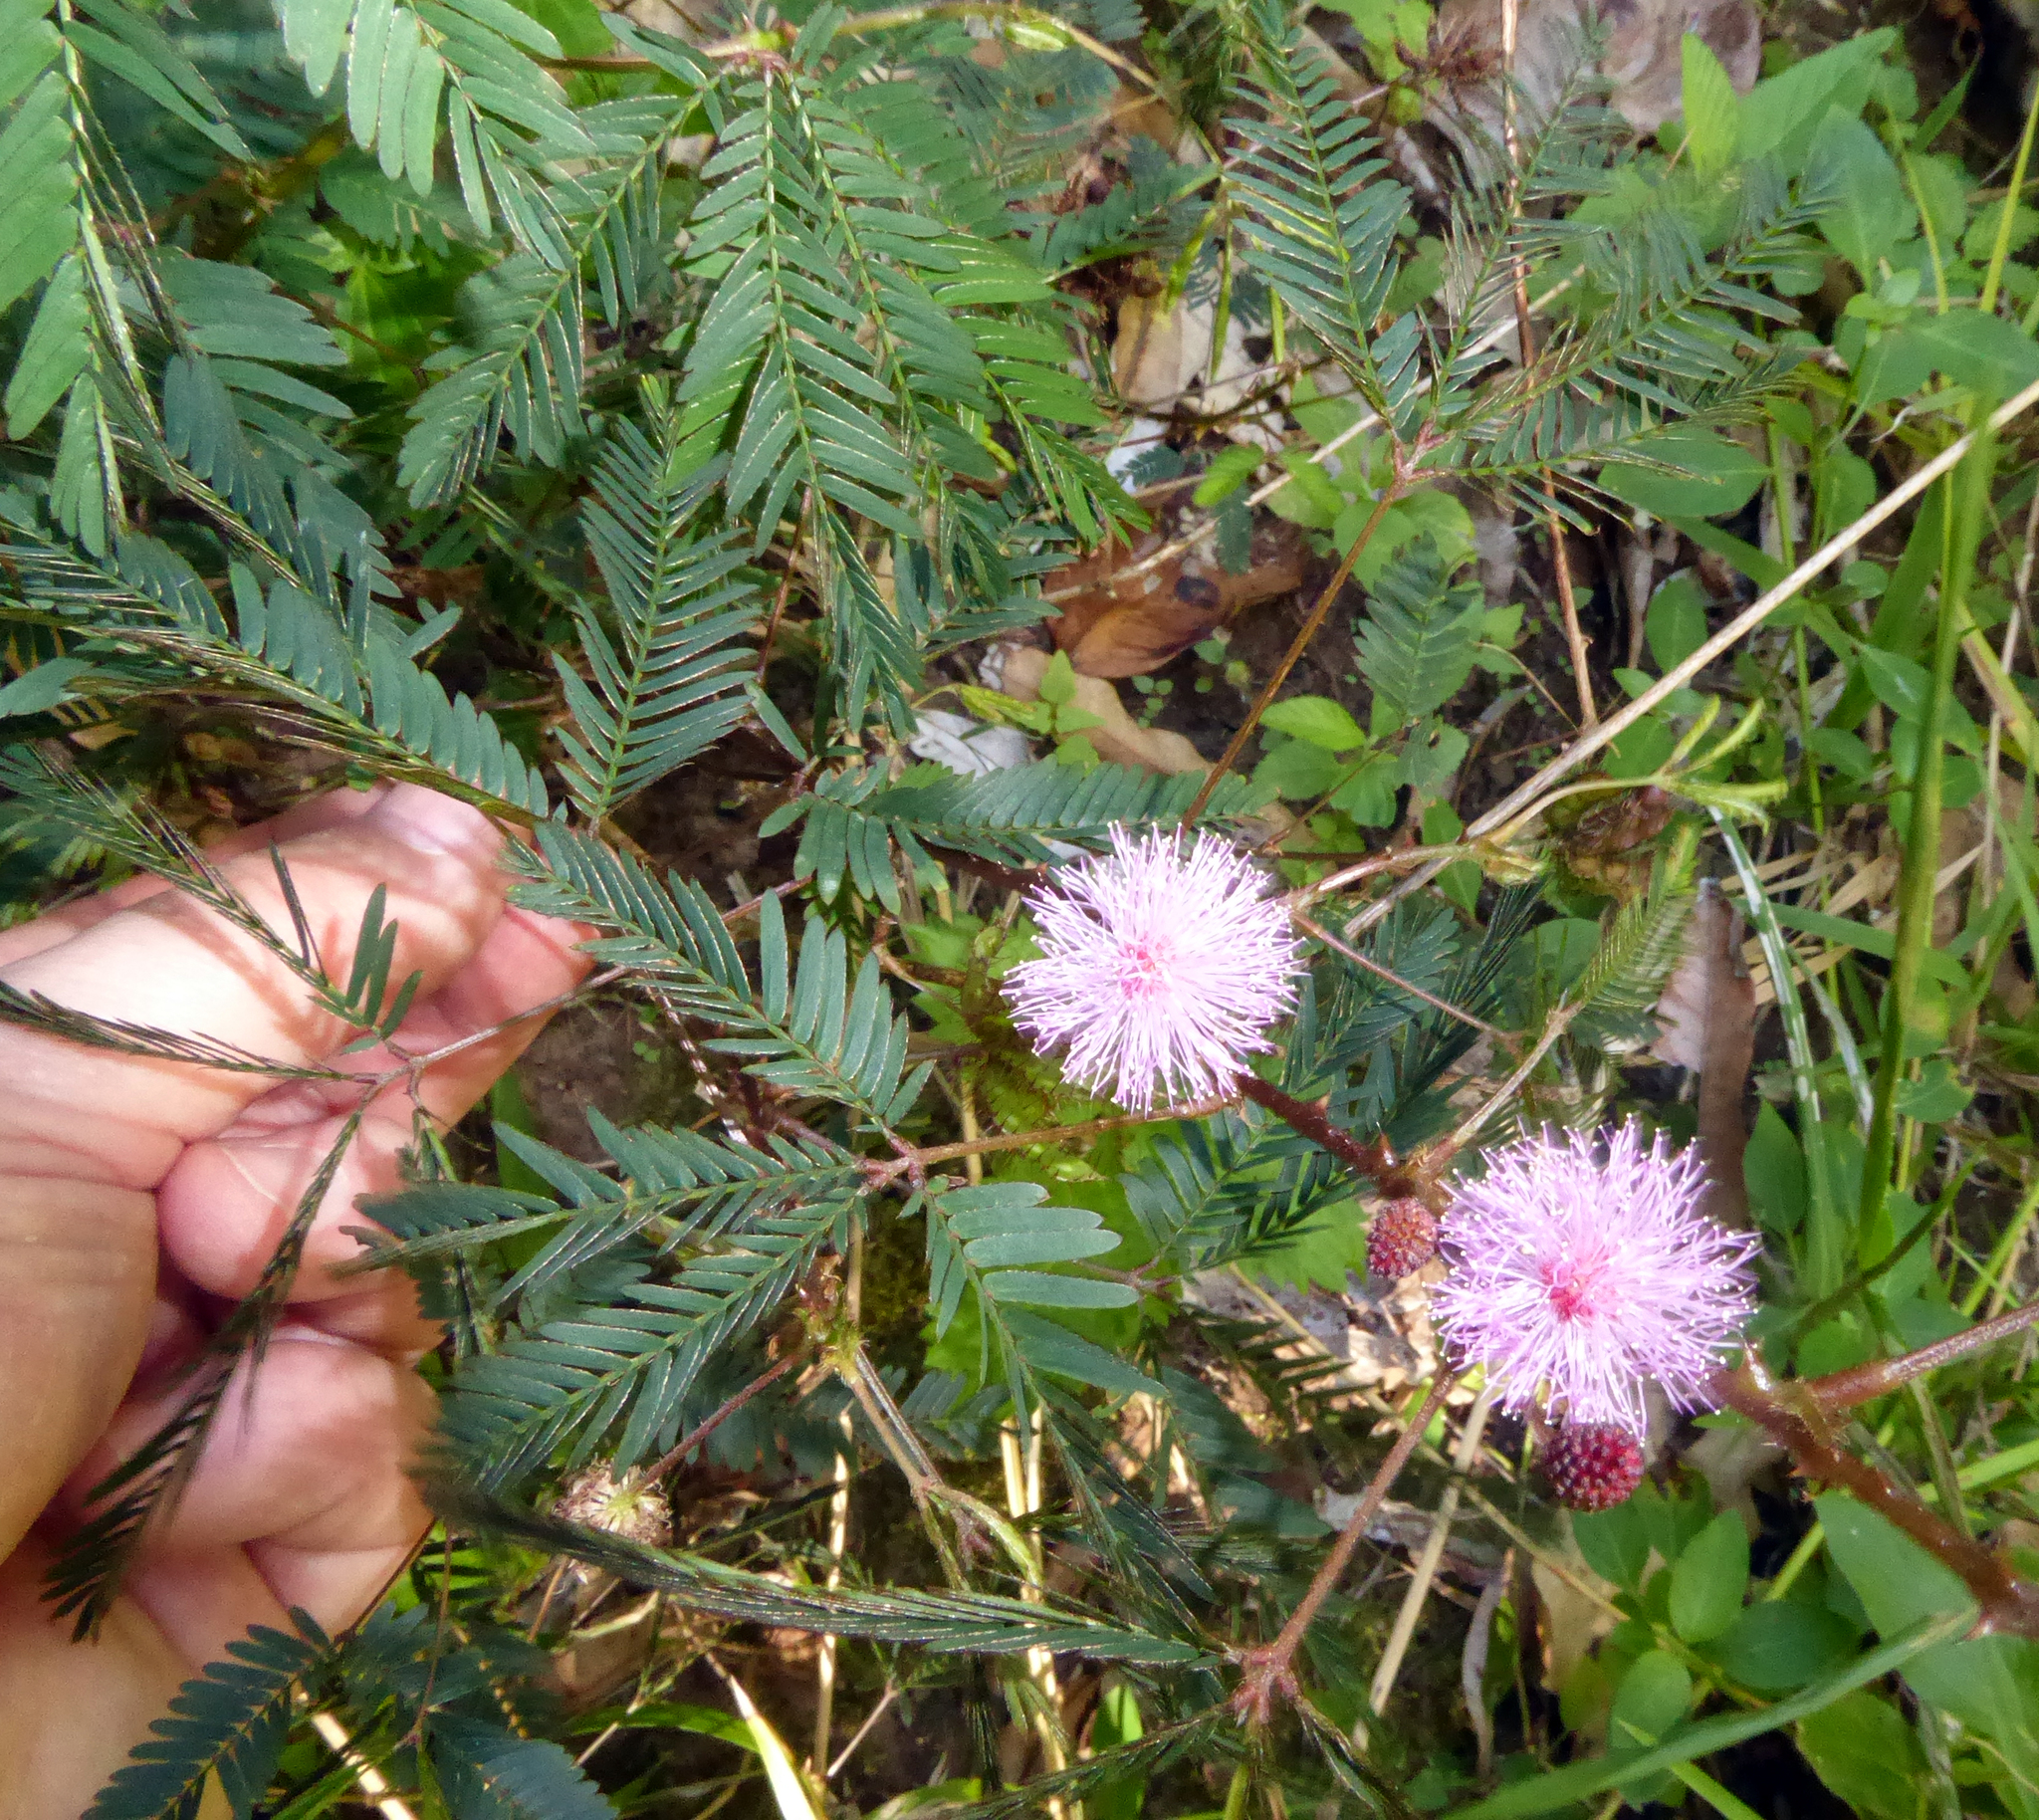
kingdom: Plantae
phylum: Tracheophyta
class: Magnoliopsida
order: Fabales
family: Fabaceae
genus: Mimosa
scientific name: Mimosa pudica
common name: Sensitive plant
